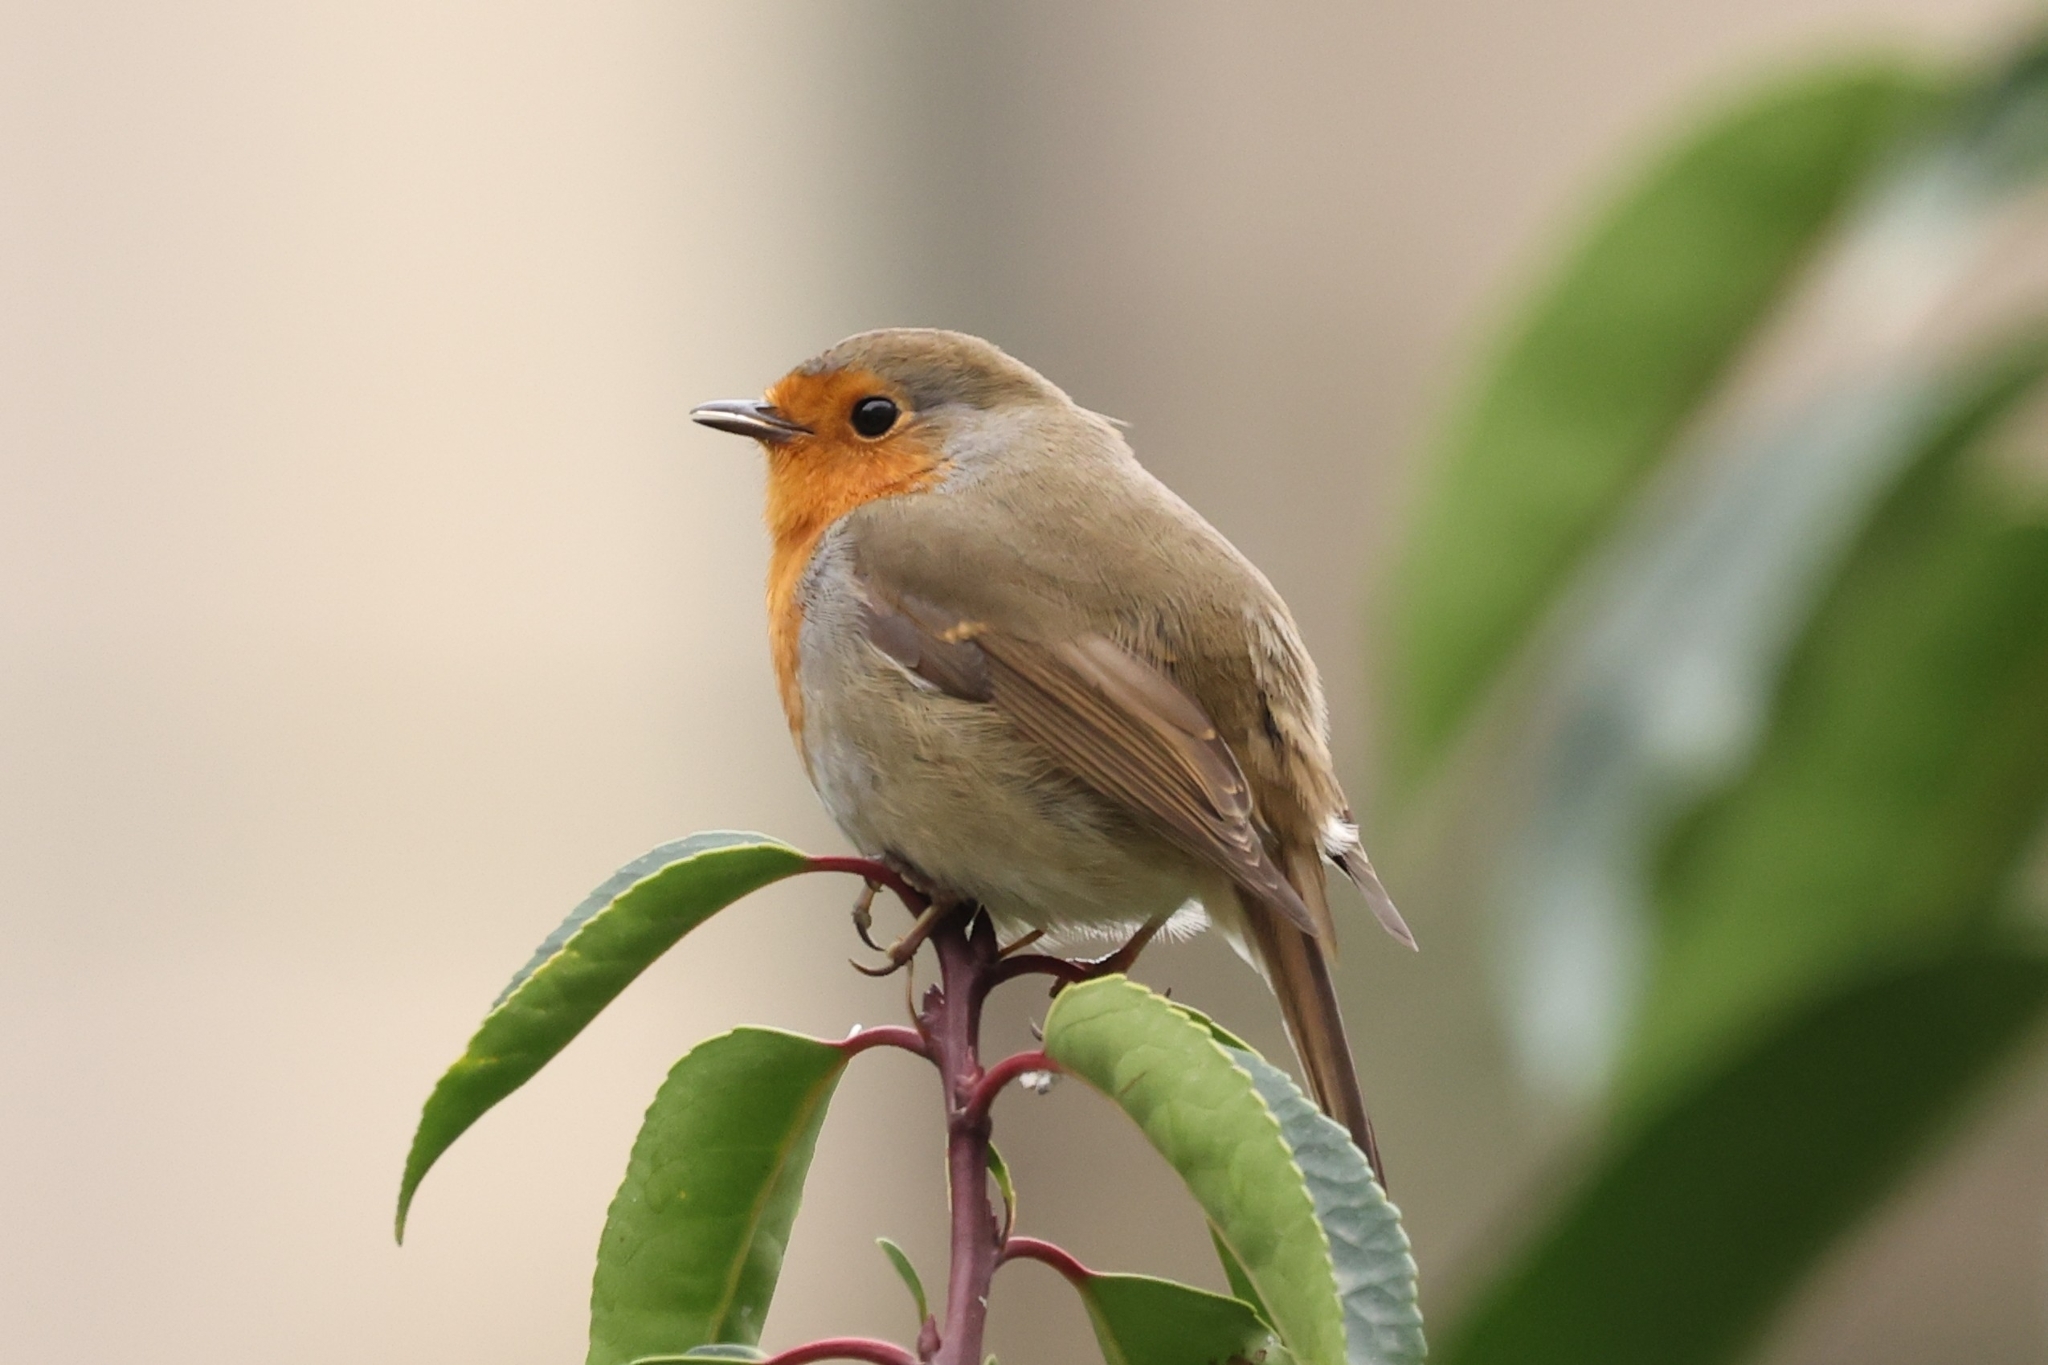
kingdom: Animalia
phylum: Chordata
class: Aves
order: Passeriformes
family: Muscicapidae
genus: Erithacus
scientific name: Erithacus rubecula
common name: European robin
